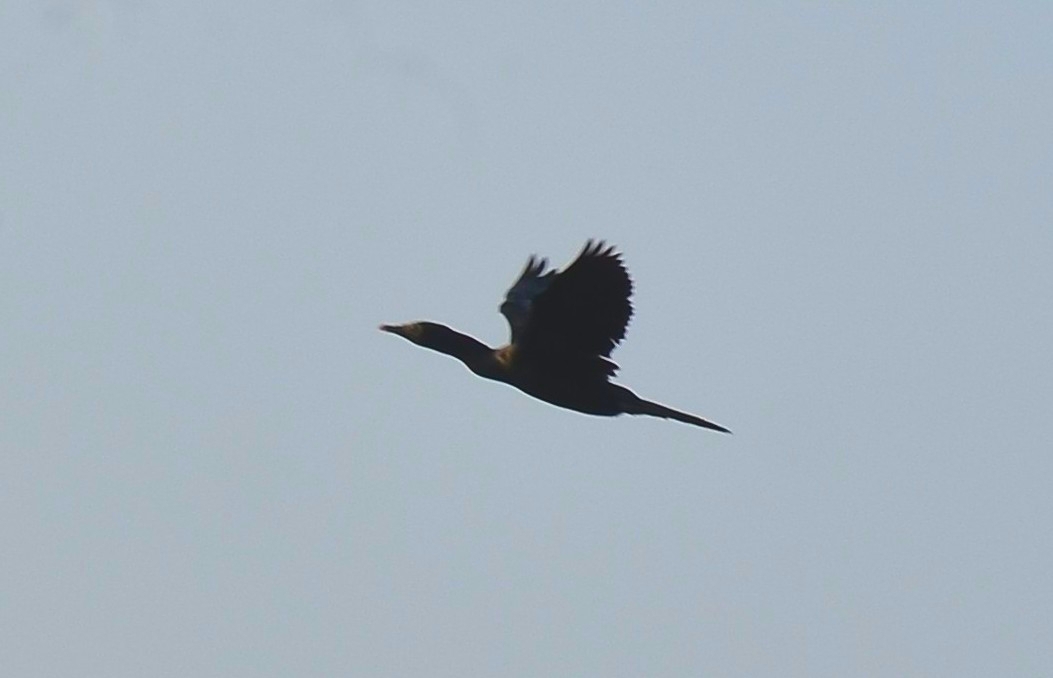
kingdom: Animalia
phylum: Chordata
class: Aves
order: Suliformes
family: Phalacrocoracidae
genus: Microcarbo
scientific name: Microcarbo niger
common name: Little cormorant
